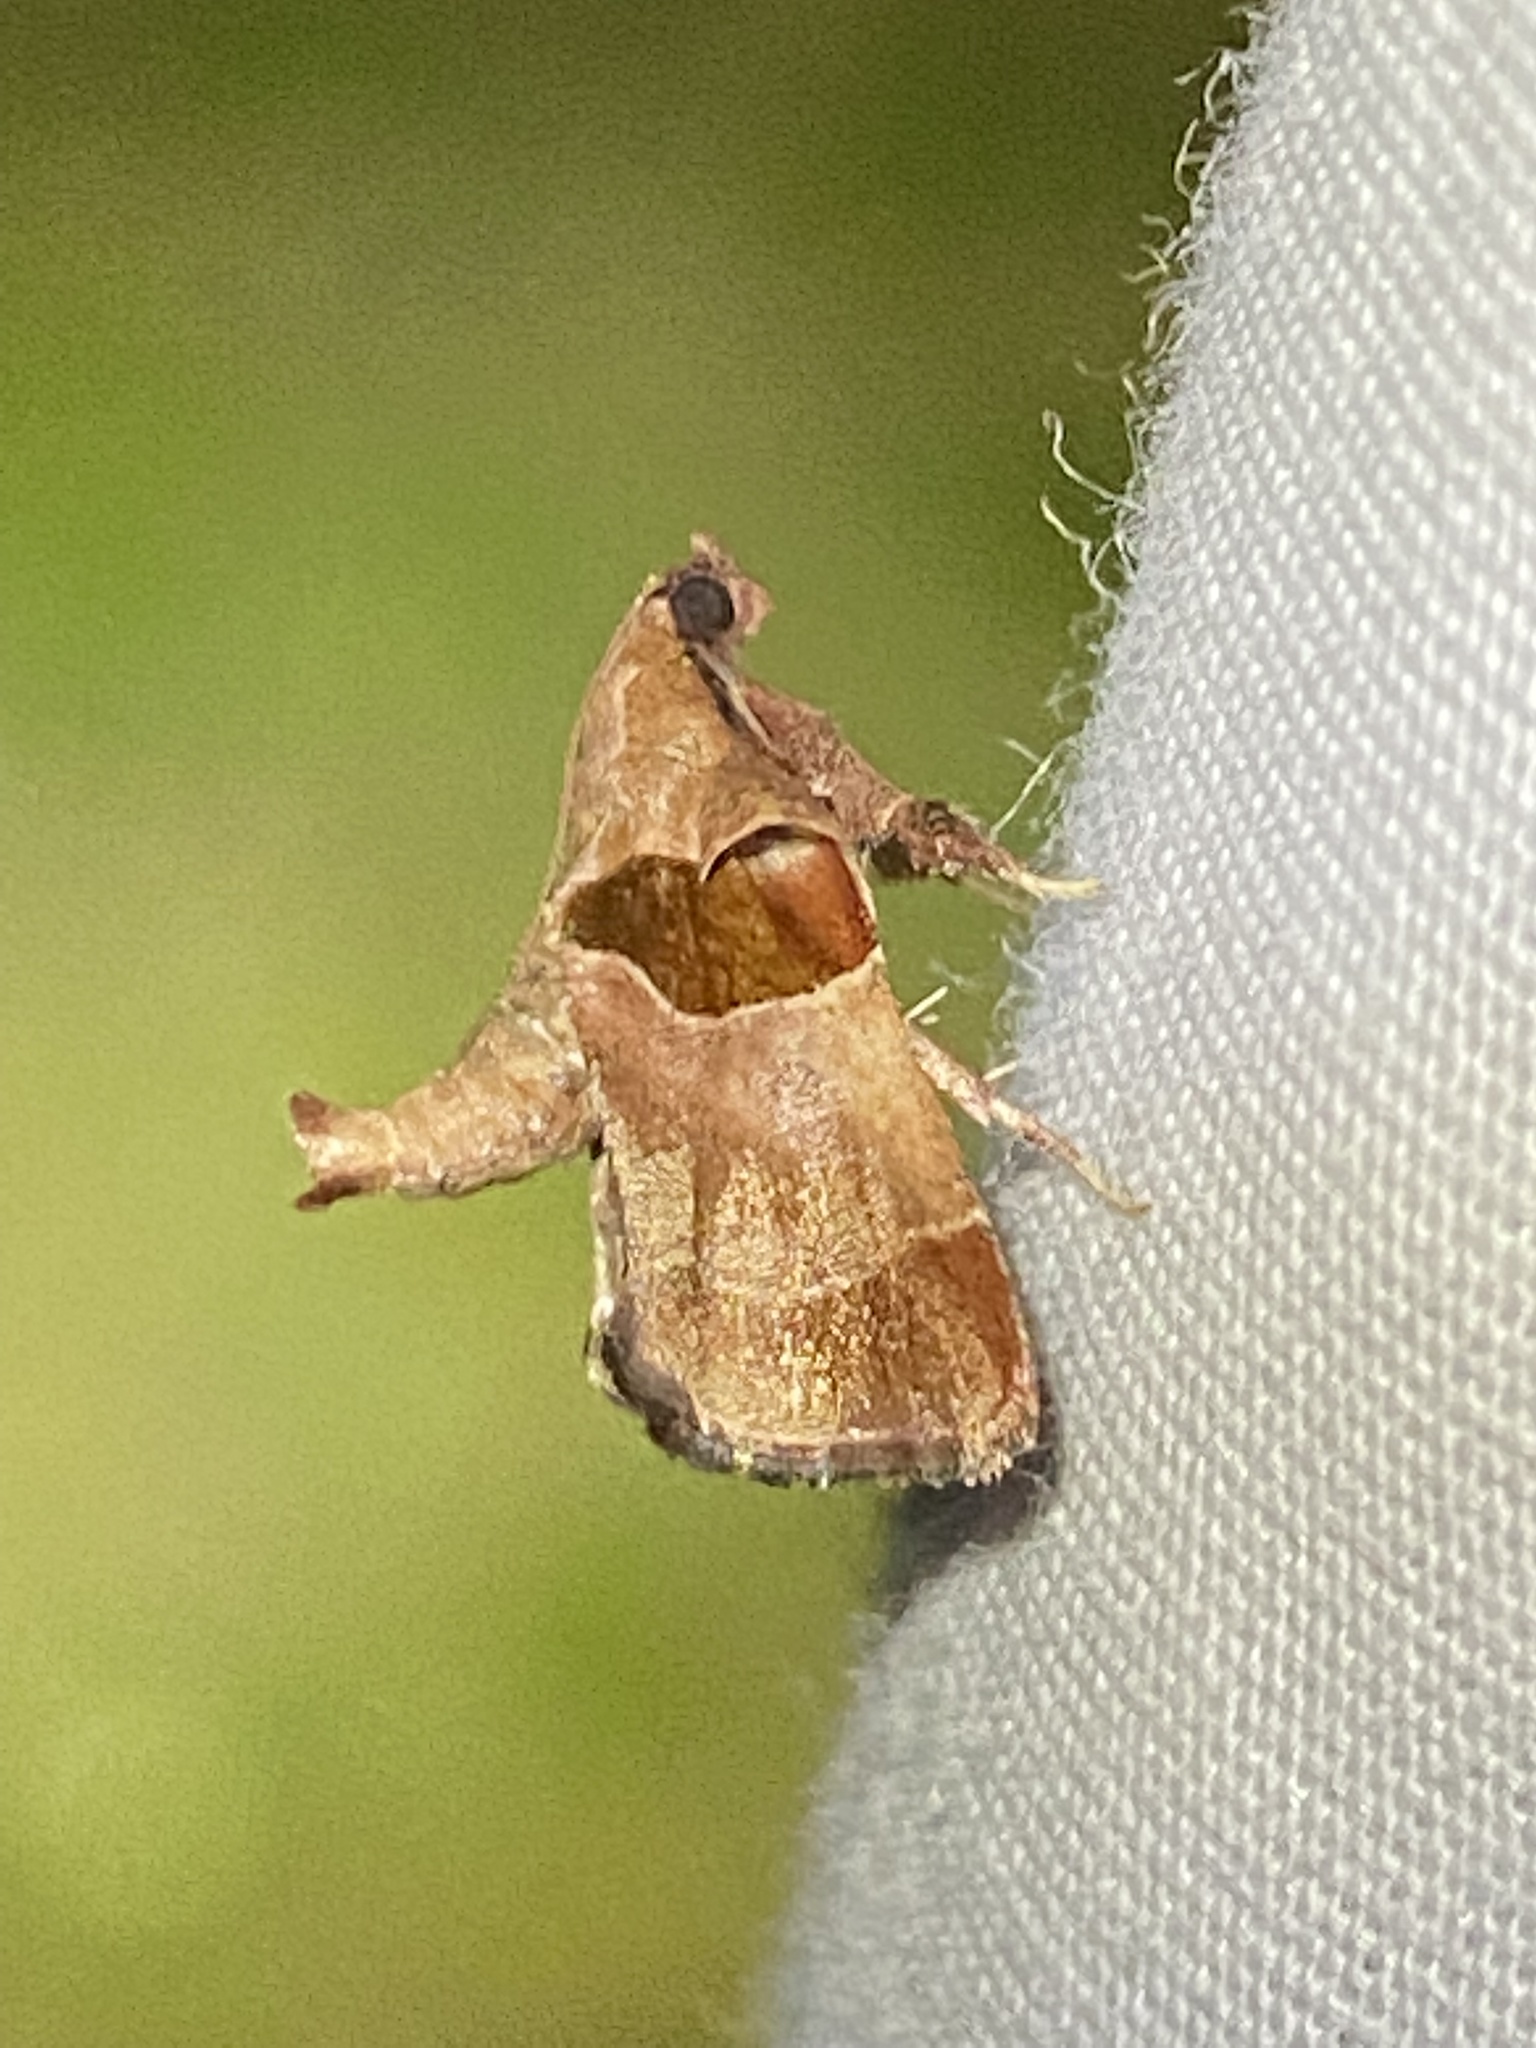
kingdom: Animalia
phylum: Arthropoda
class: Insecta
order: Lepidoptera
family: Pyralidae
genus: Tosale
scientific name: Tosale oviplagalis
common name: Dimorphic tosale moth
